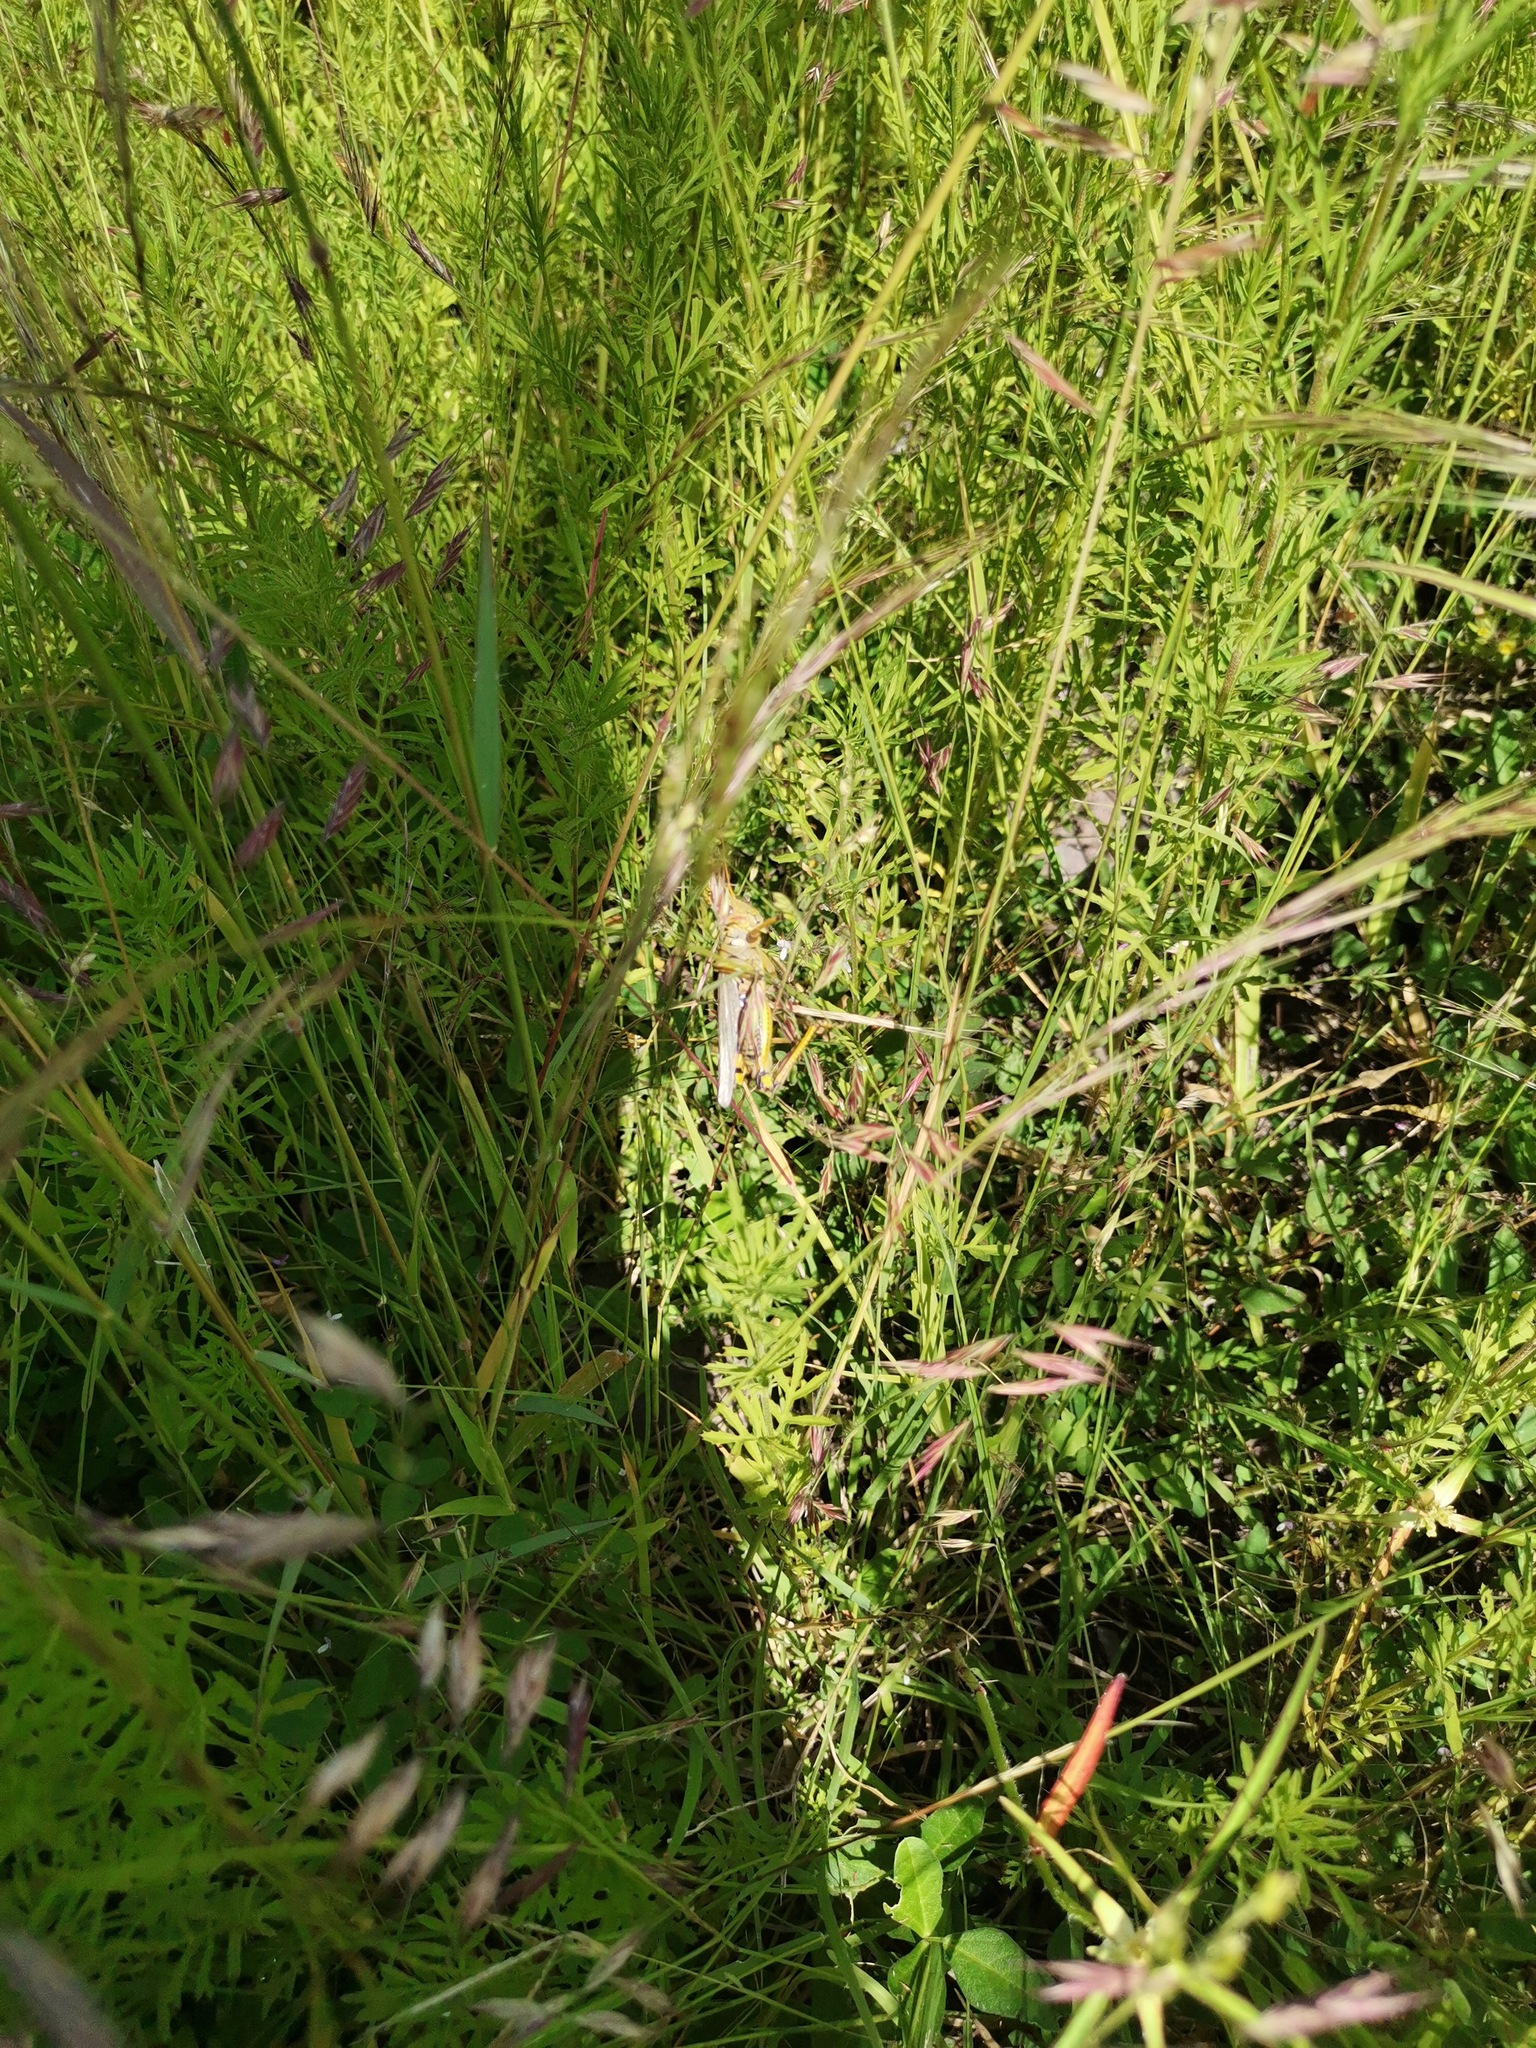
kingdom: Plantae
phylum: Tracheophyta
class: Liliopsida
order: Poales
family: Poaceae
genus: Bouteloua
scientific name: Bouteloua repens
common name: Slender grama
